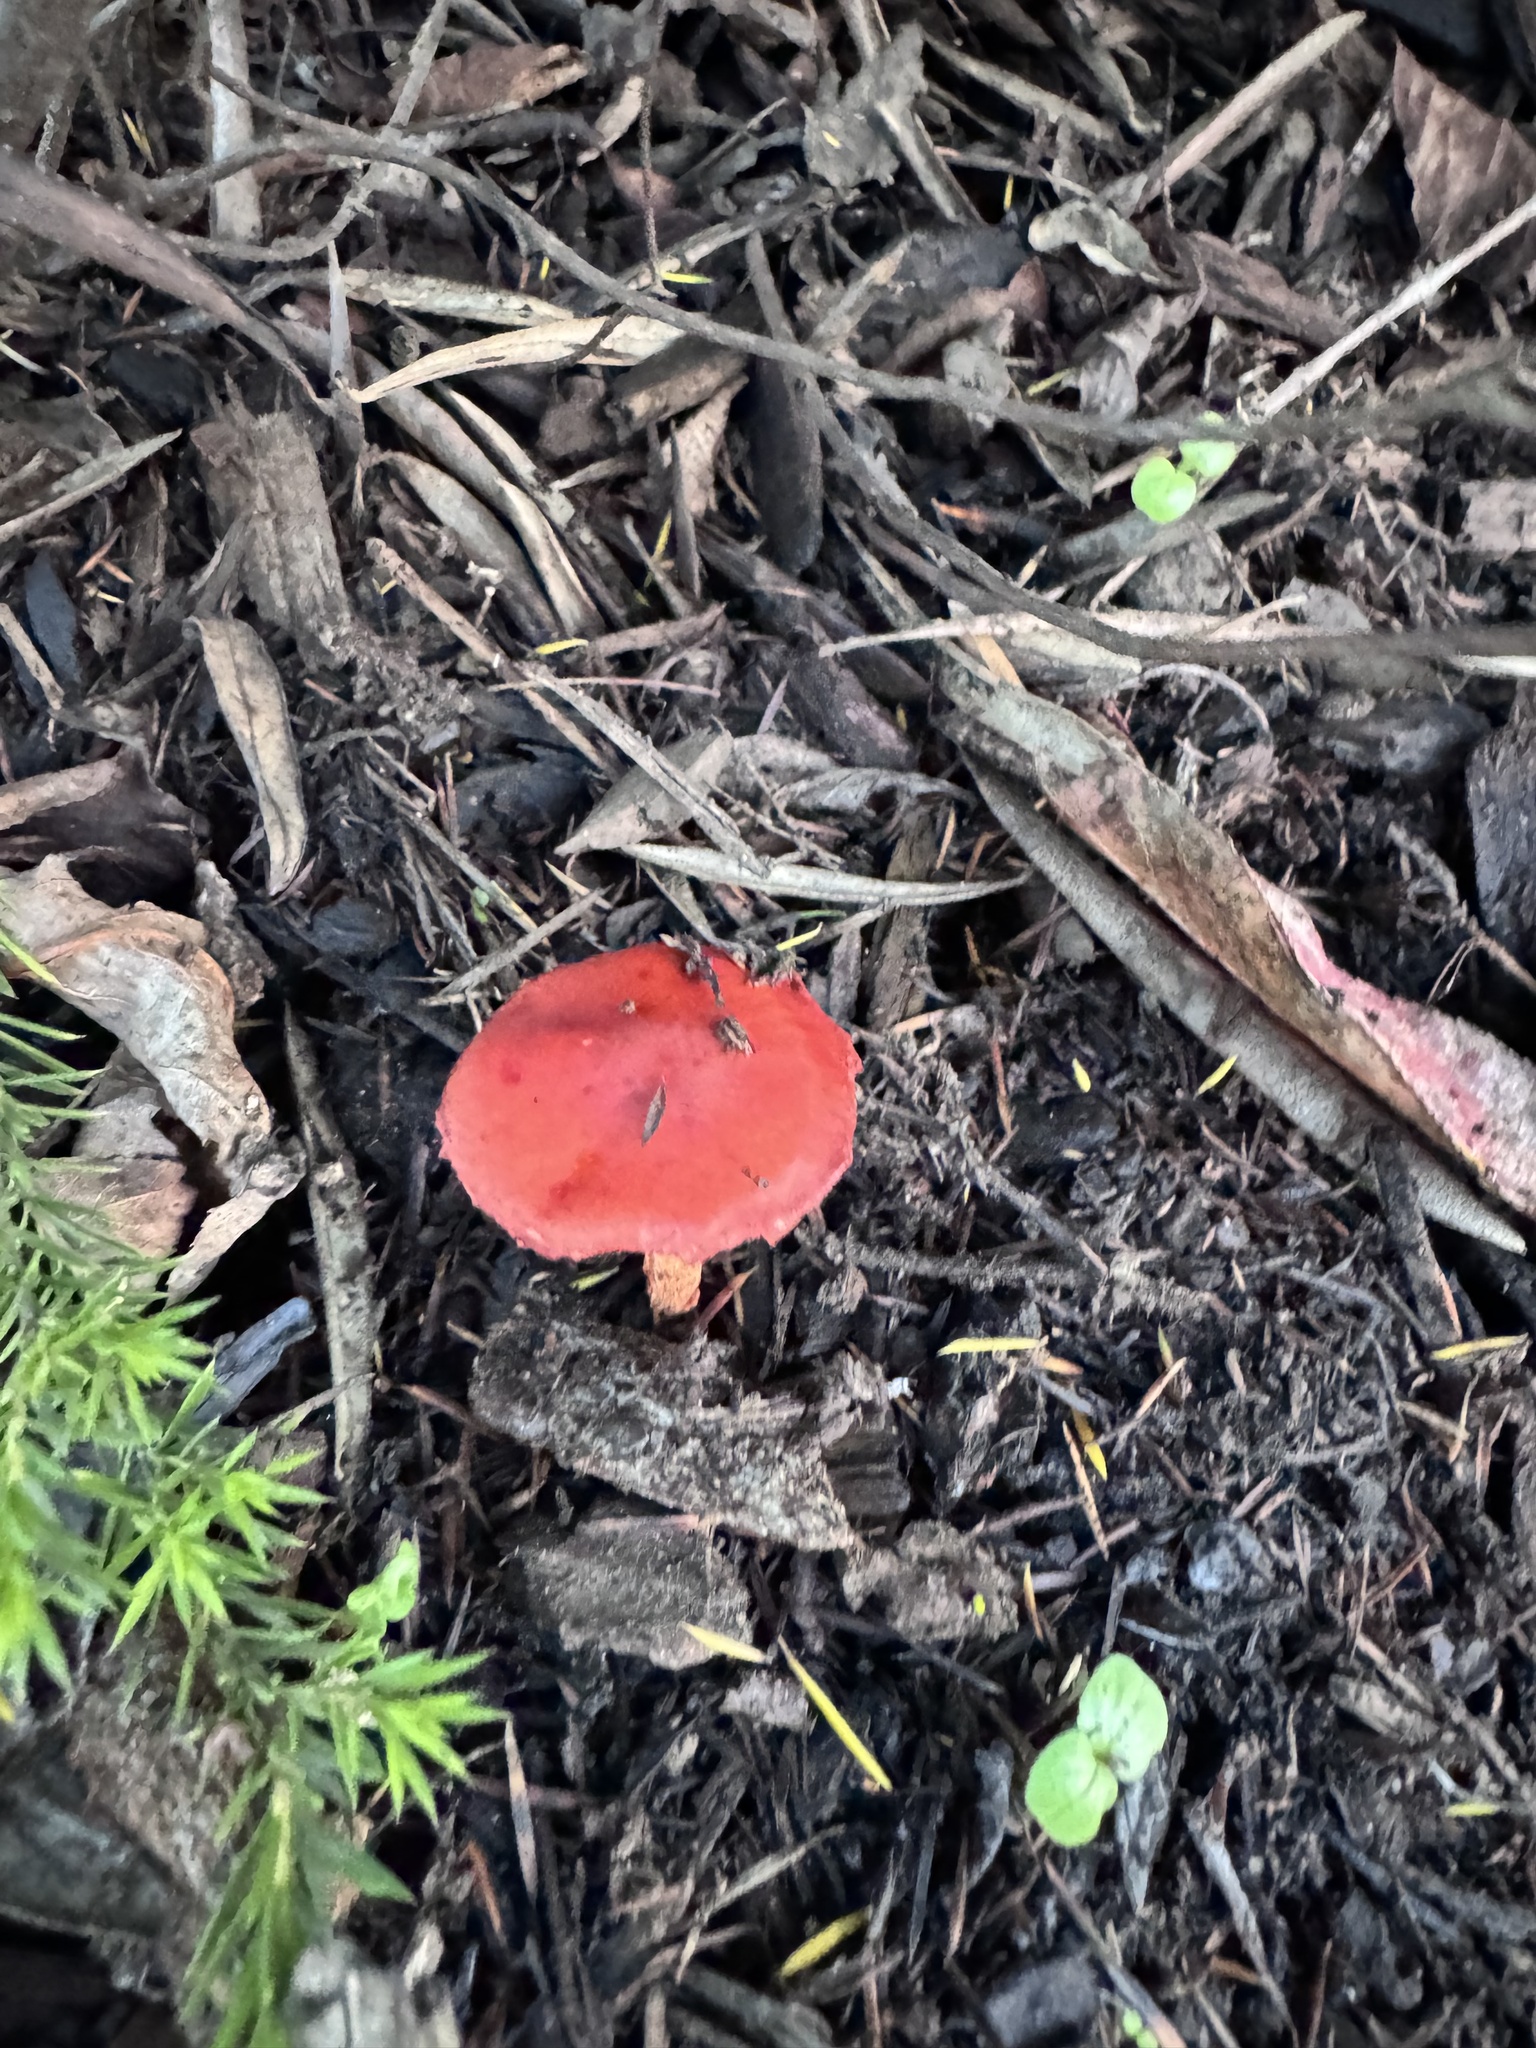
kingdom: Fungi
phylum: Basidiomycota
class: Agaricomycetes
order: Agaricales
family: Strophariaceae
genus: Leratiomyces
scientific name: Leratiomyces ceres
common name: Redlead roundhead
